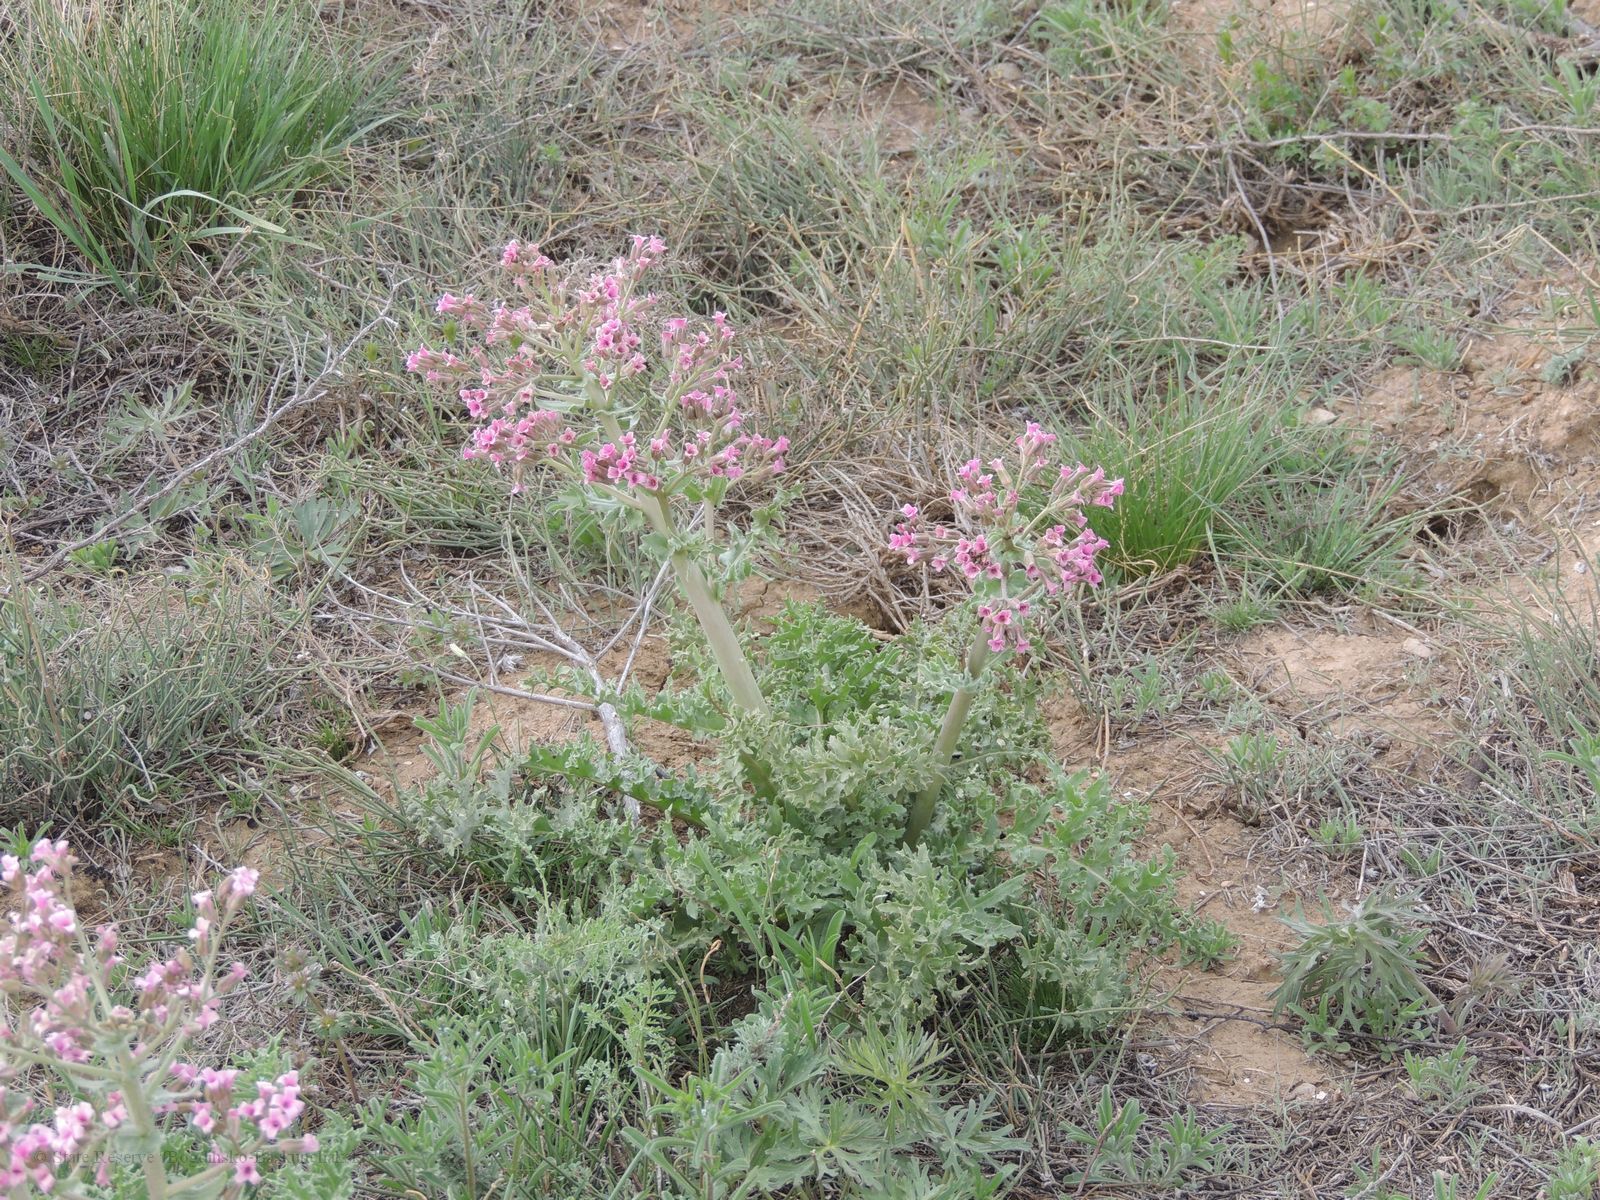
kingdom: Plantae
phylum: Tracheophyta
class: Magnoliopsida
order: Brassicales
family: Brassicaceae
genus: Megacarpaea
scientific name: Megacarpaea megalocarpa
